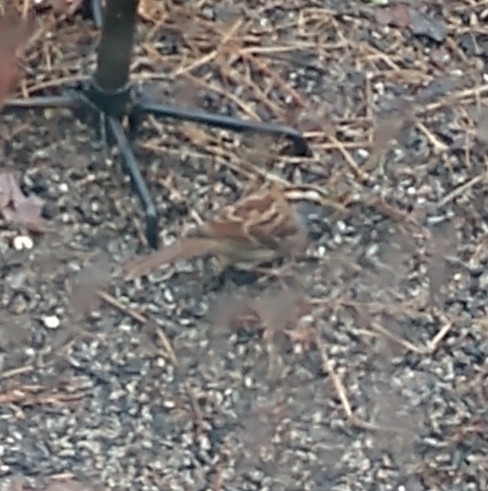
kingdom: Animalia
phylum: Chordata
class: Aves
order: Passeriformes
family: Passerellidae
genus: Zonotrichia
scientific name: Zonotrichia albicollis
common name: White-throated sparrow
